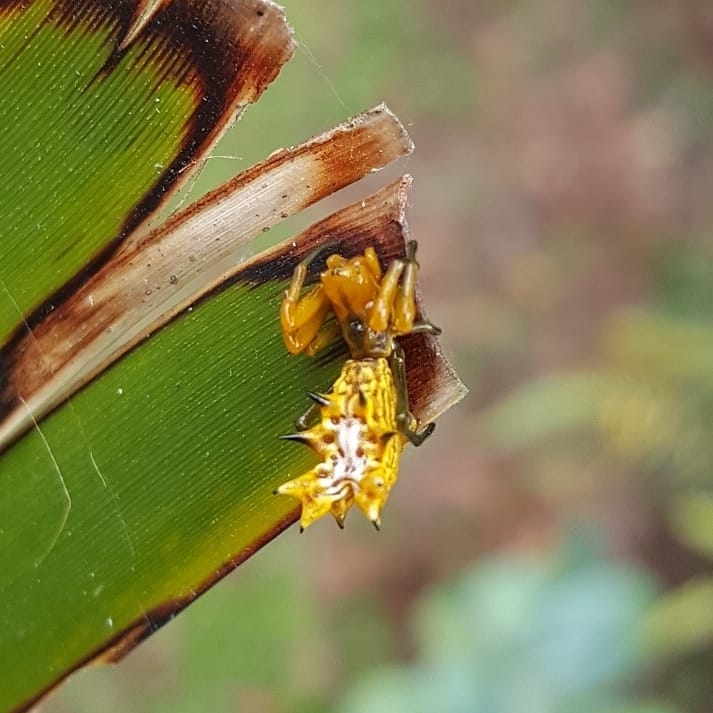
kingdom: Animalia
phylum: Arthropoda
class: Arachnida
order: Araneae
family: Araneidae
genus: Micrathena
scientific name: Micrathena gracilis
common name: Orb weavers
